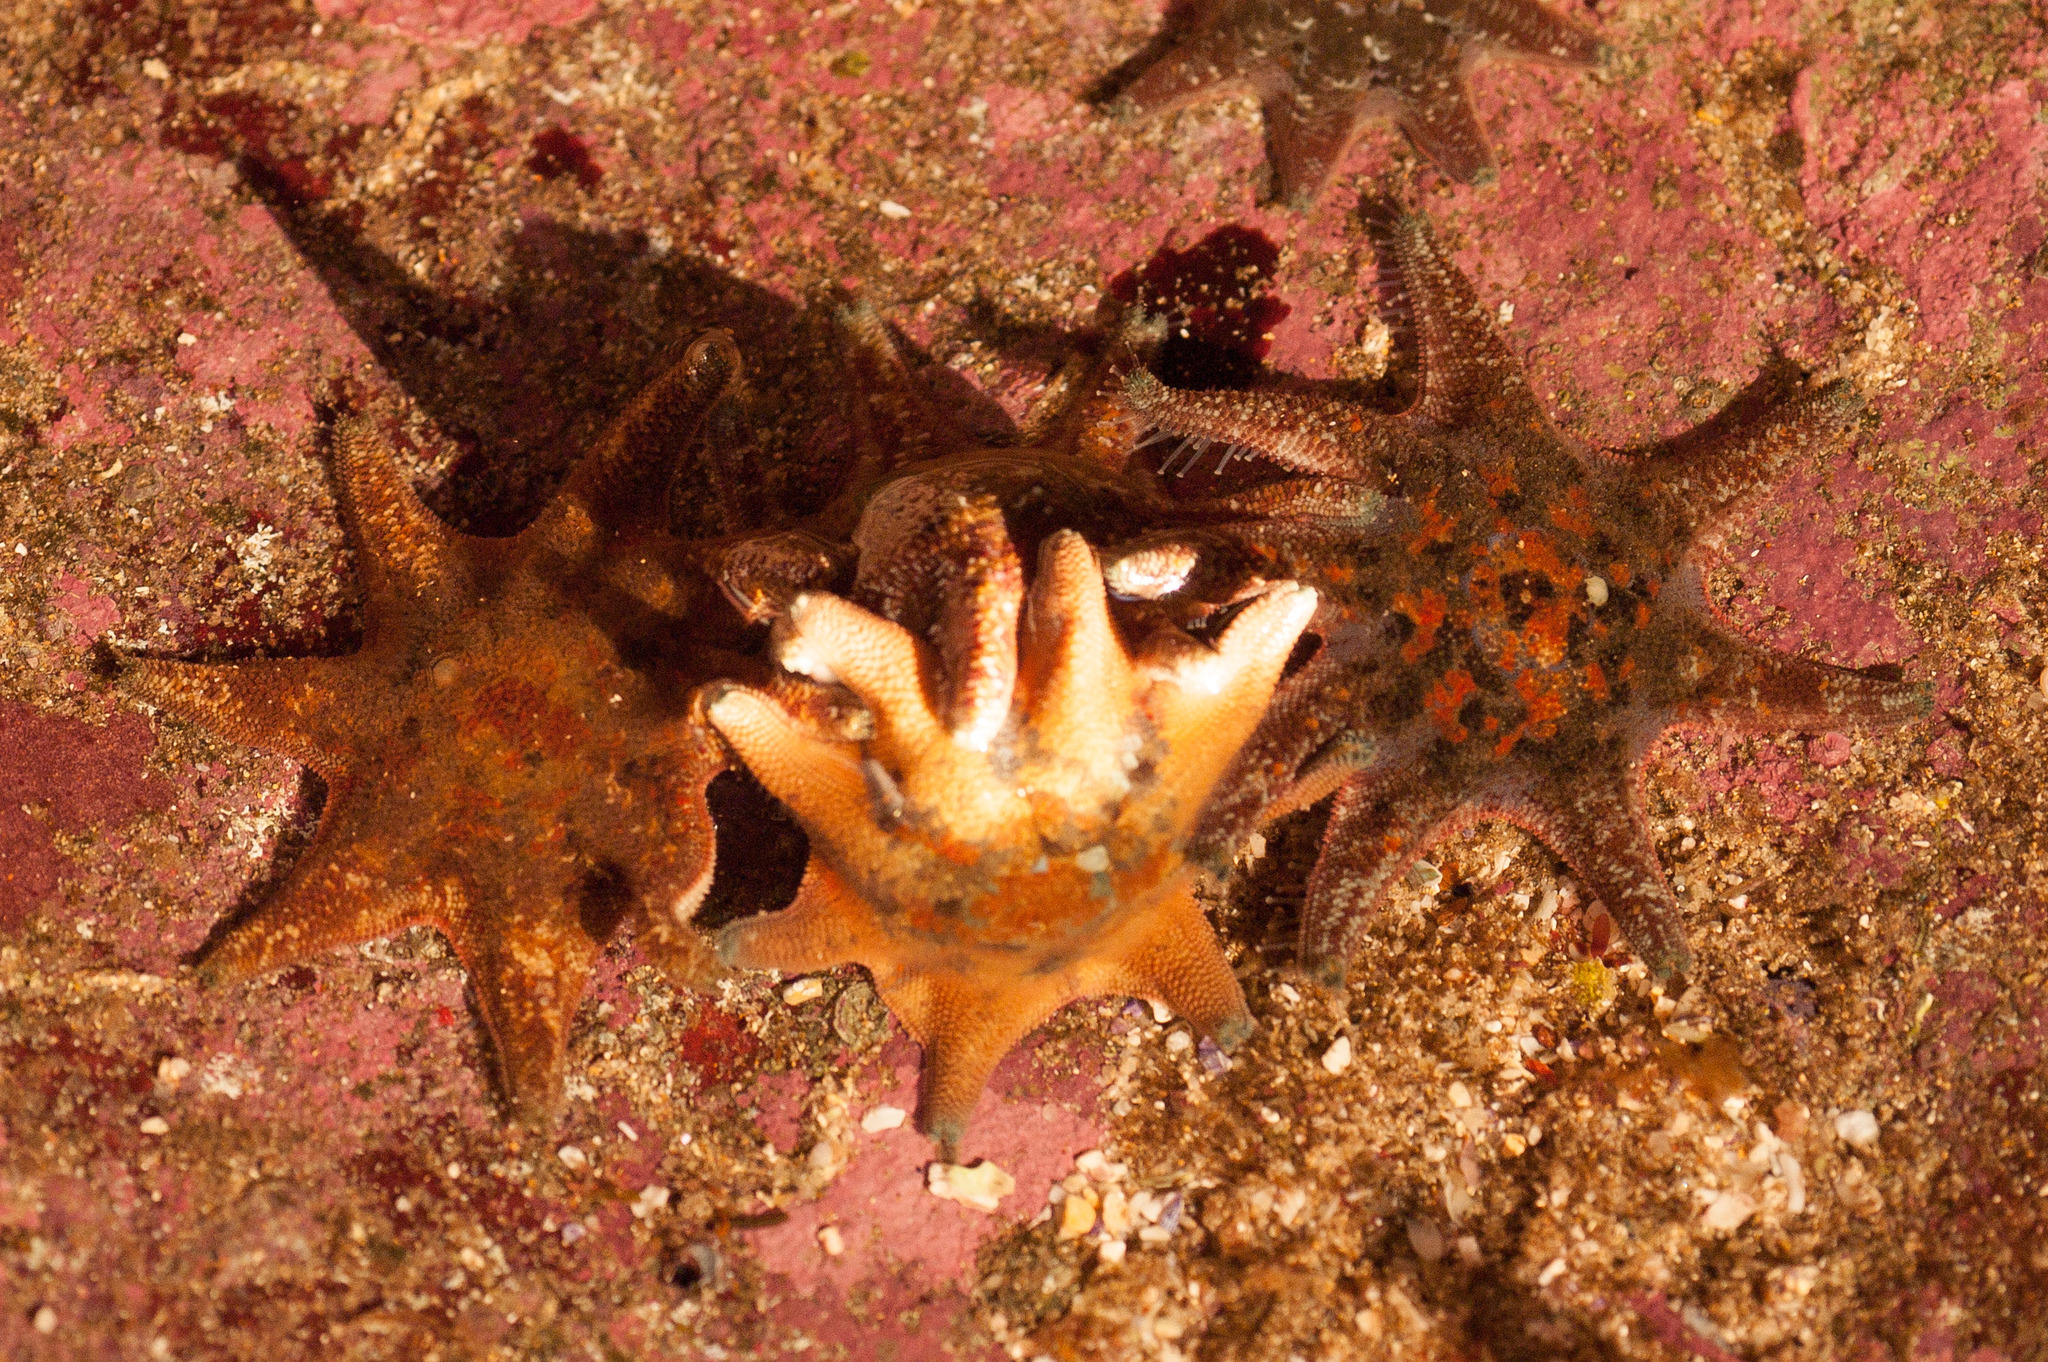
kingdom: Animalia
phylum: Echinodermata
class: Asteroidea
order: Valvatida
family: Asterinidae
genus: Meridiastra
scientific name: Meridiastra calcar
